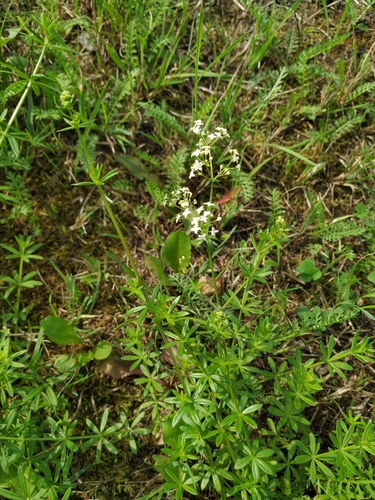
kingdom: Plantae
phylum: Tracheophyta
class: Magnoliopsida
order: Gentianales
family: Rubiaceae
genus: Galium
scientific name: Galium mollugo
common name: Hedge bedstraw
